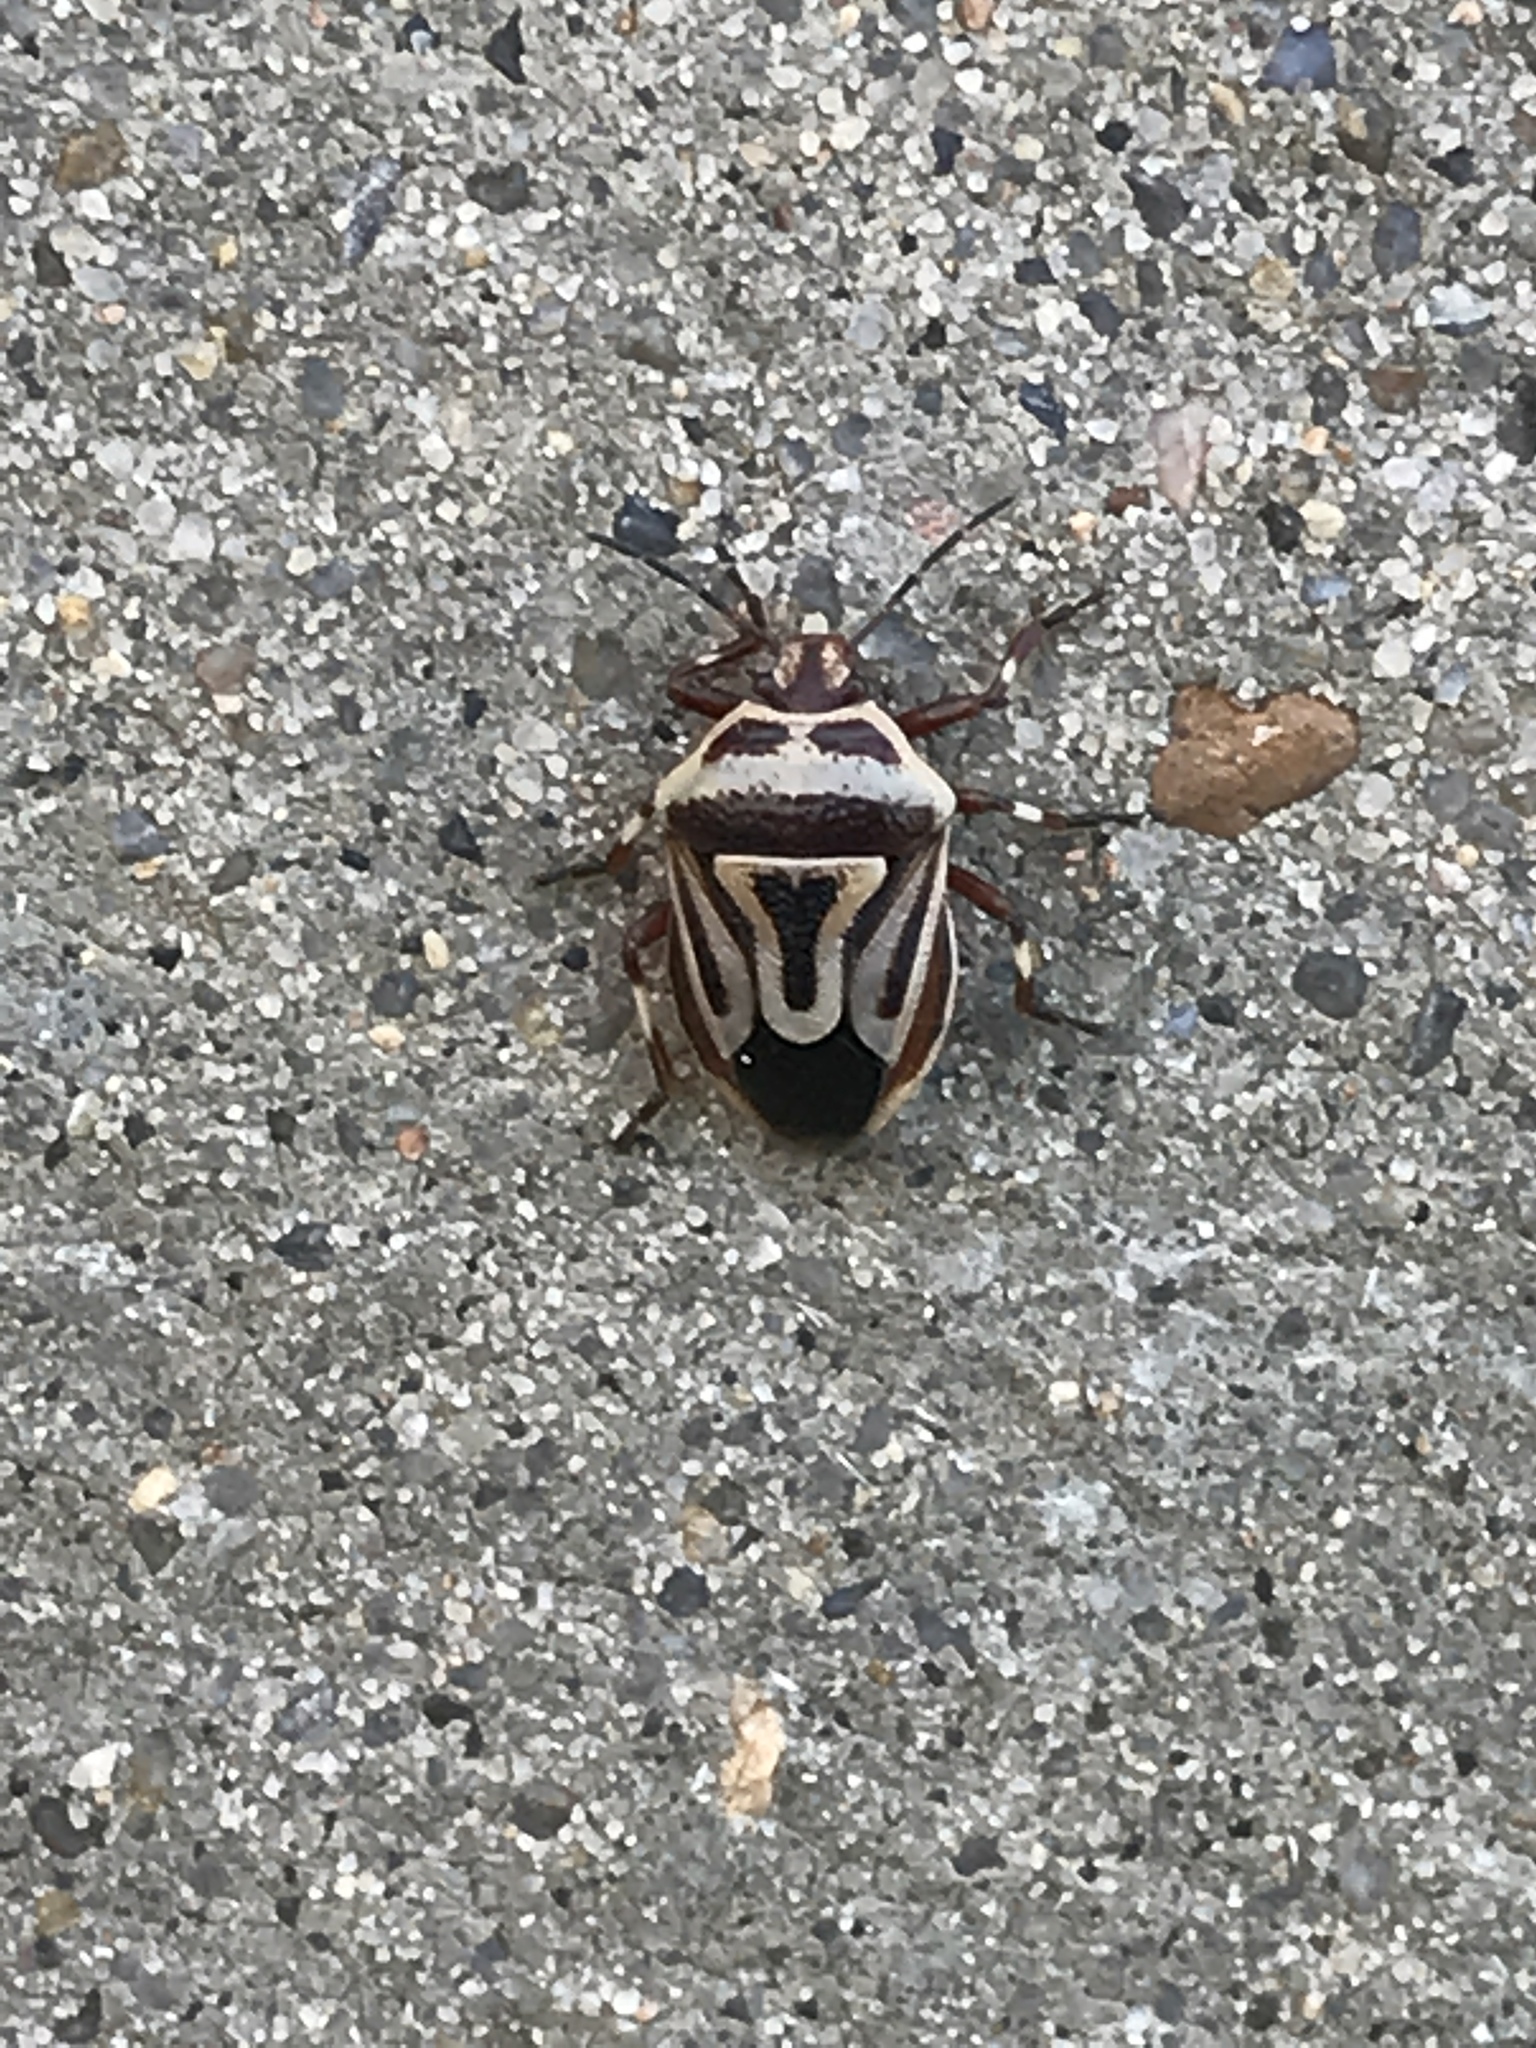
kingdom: Animalia
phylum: Arthropoda
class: Insecta
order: Hemiptera
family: Pentatomidae
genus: Perillus
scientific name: Perillus bioculatus
